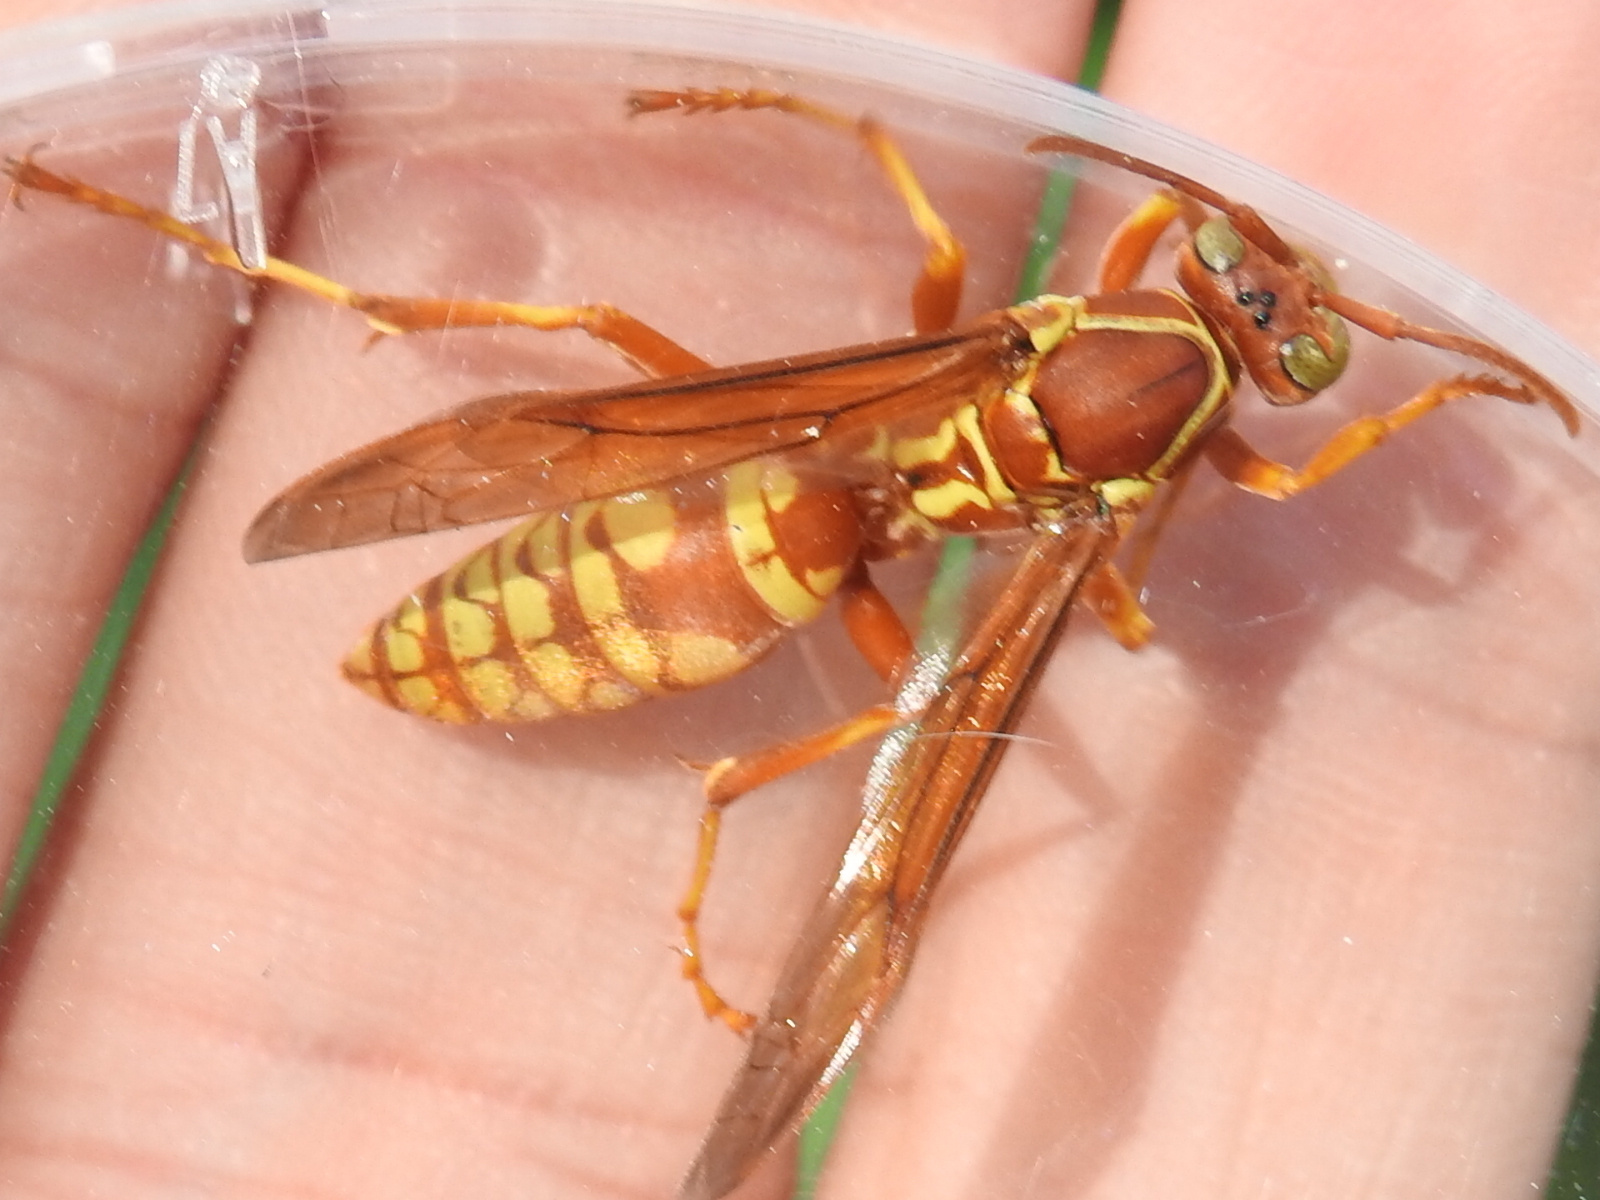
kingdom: Animalia
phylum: Arthropoda
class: Insecta
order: Hymenoptera
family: Eumenidae
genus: Polistes
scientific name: Polistes apachus
